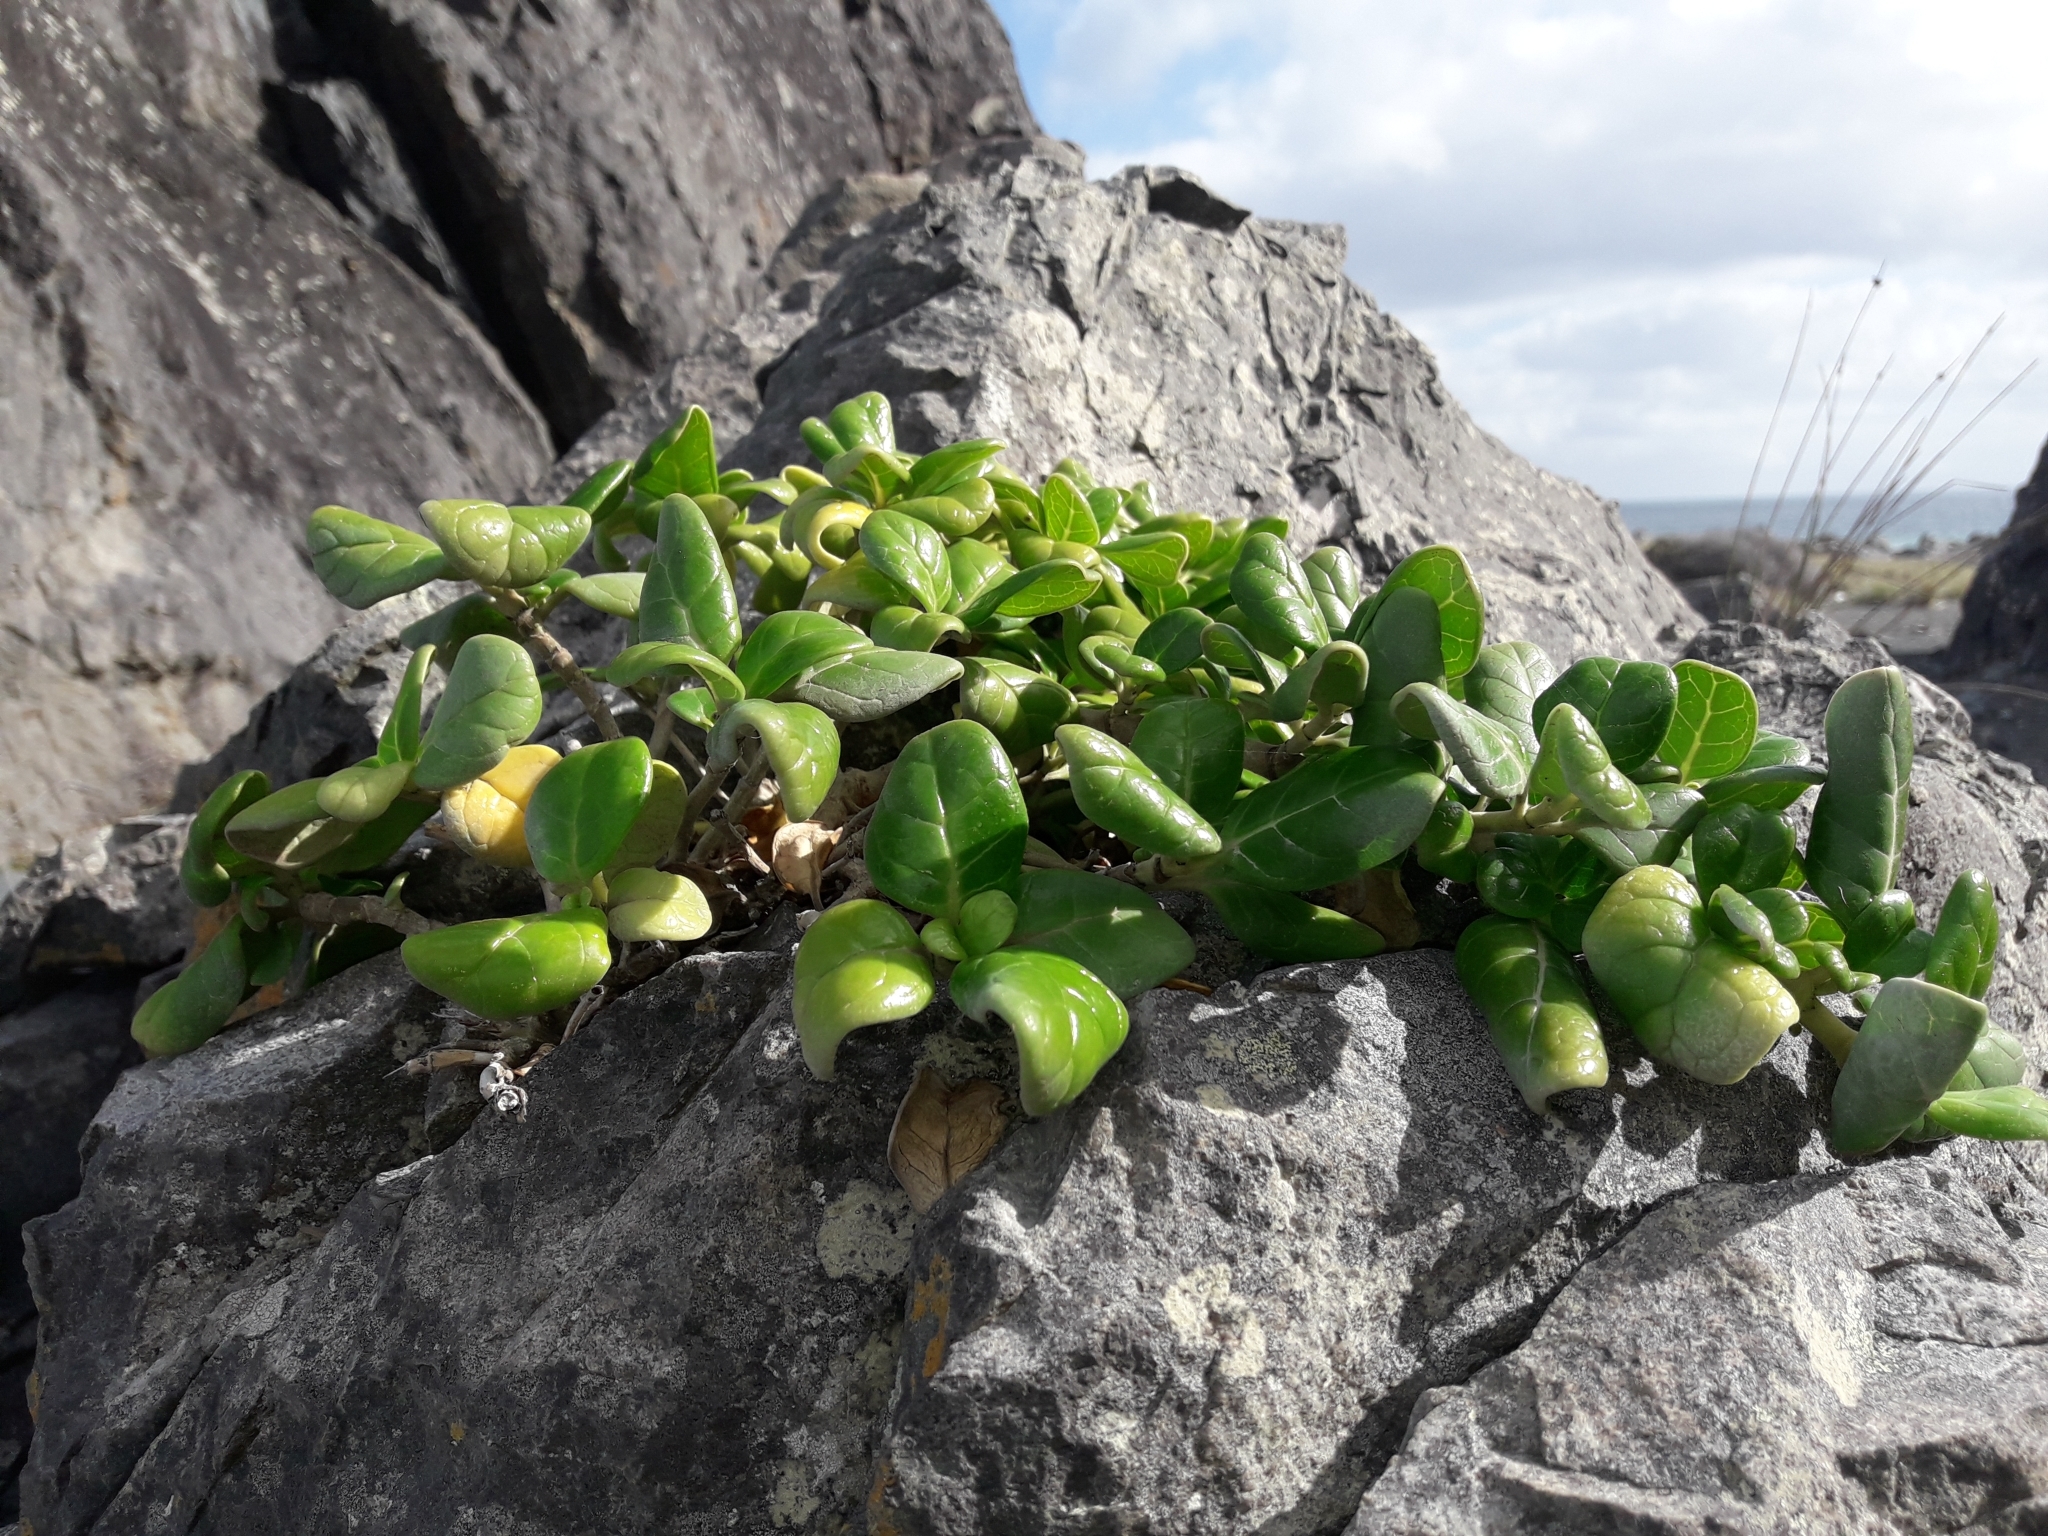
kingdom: Plantae
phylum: Tracheophyta
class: Magnoliopsida
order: Gentianales
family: Rubiaceae
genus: Coprosma
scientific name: Coprosma repens
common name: Tree bedstraw
